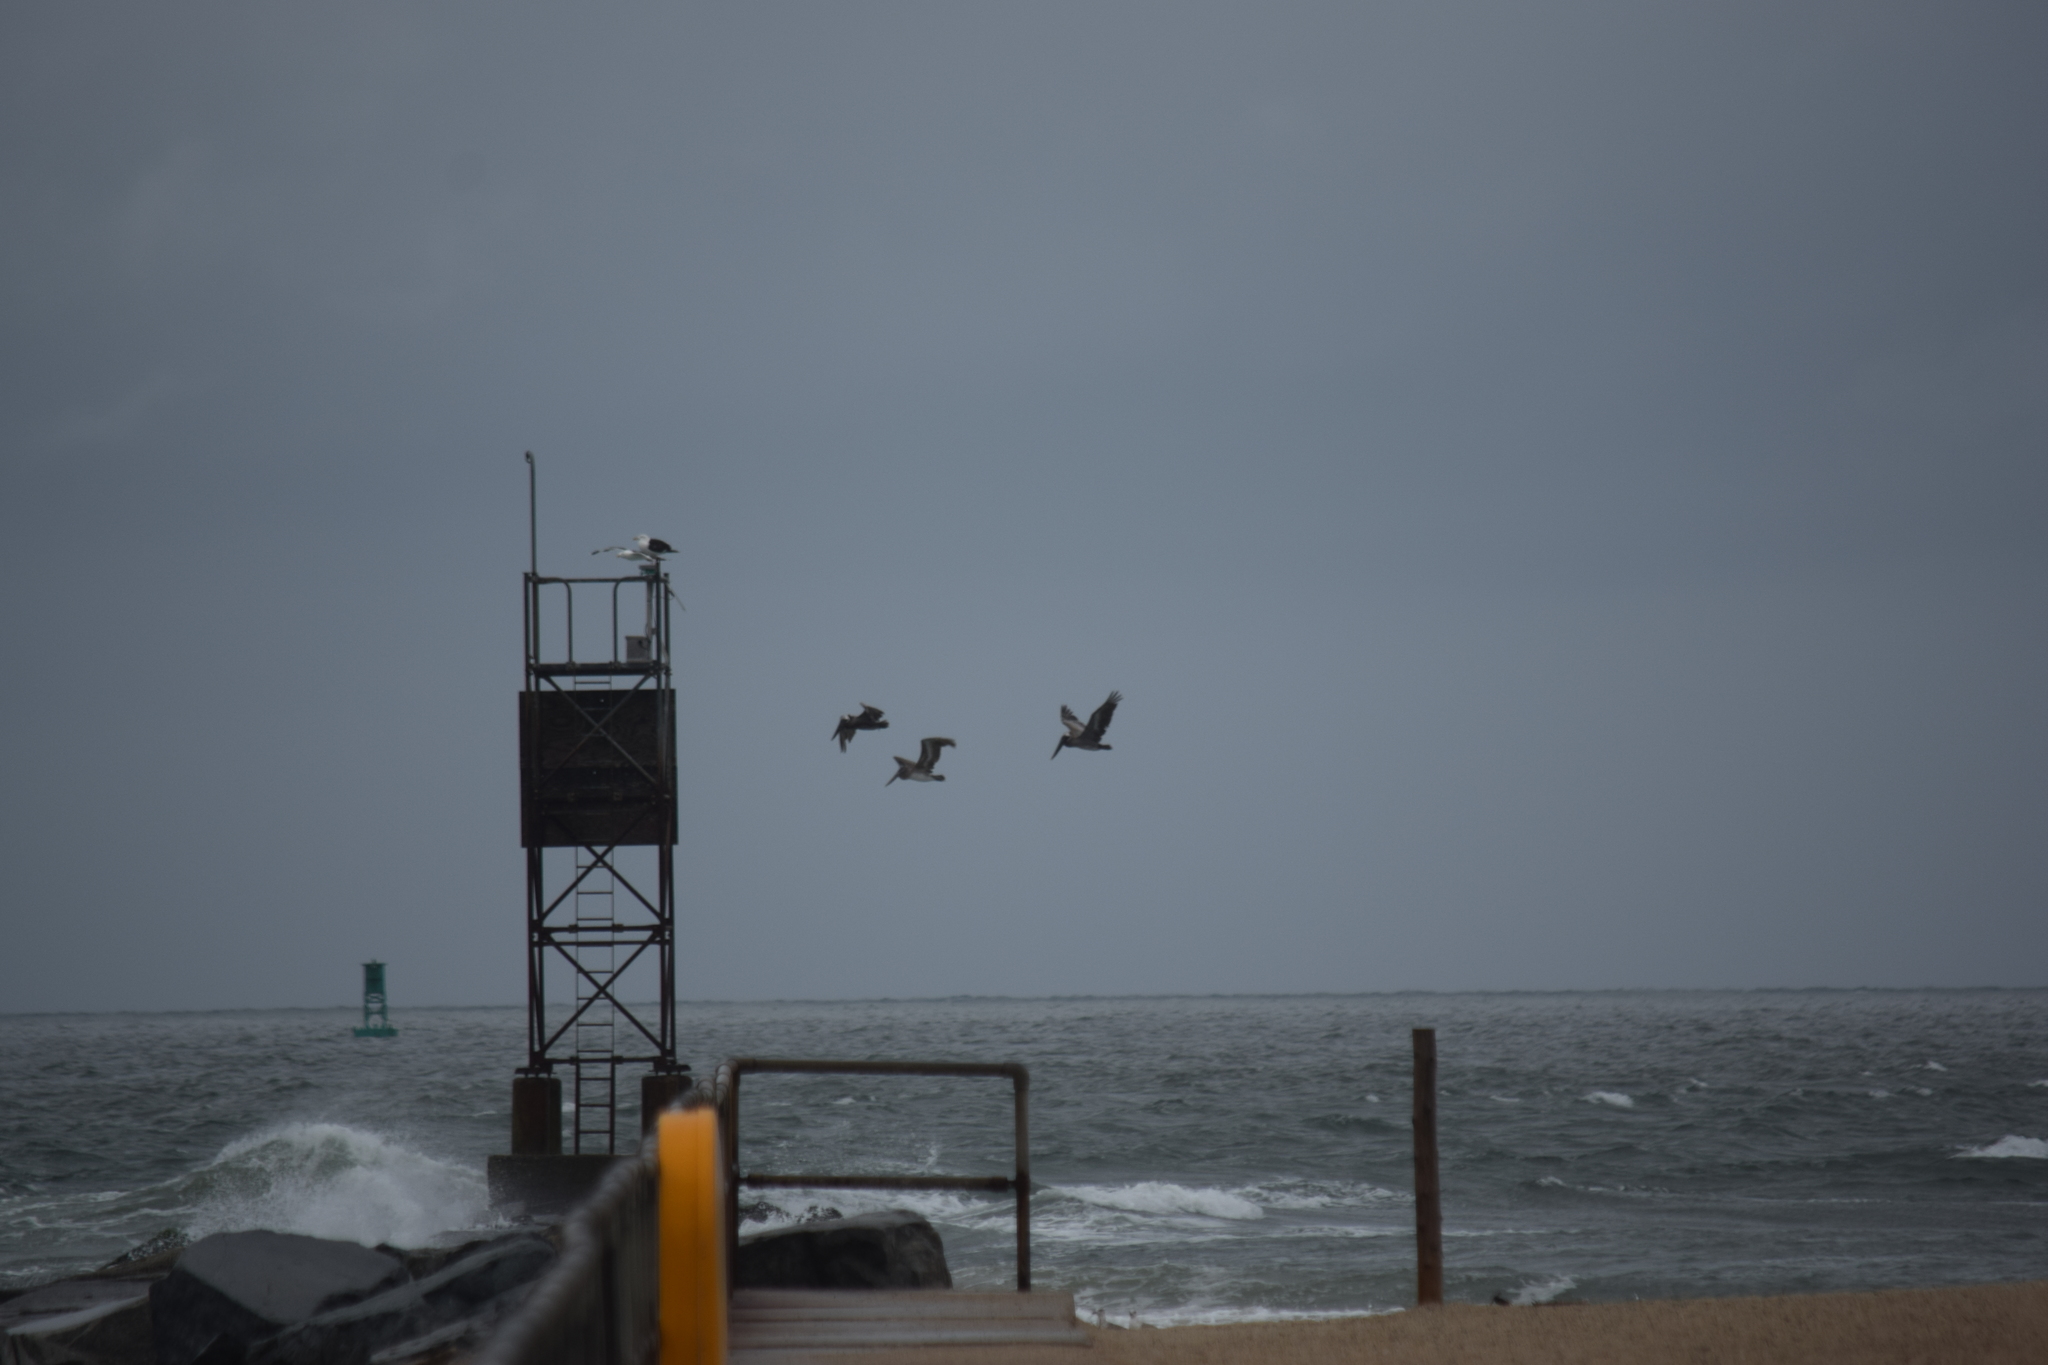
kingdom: Animalia
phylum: Chordata
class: Aves
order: Pelecaniformes
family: Pelecanidae
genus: Pelecanus
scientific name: Pelecanus occidentalis
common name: Brown pelican
